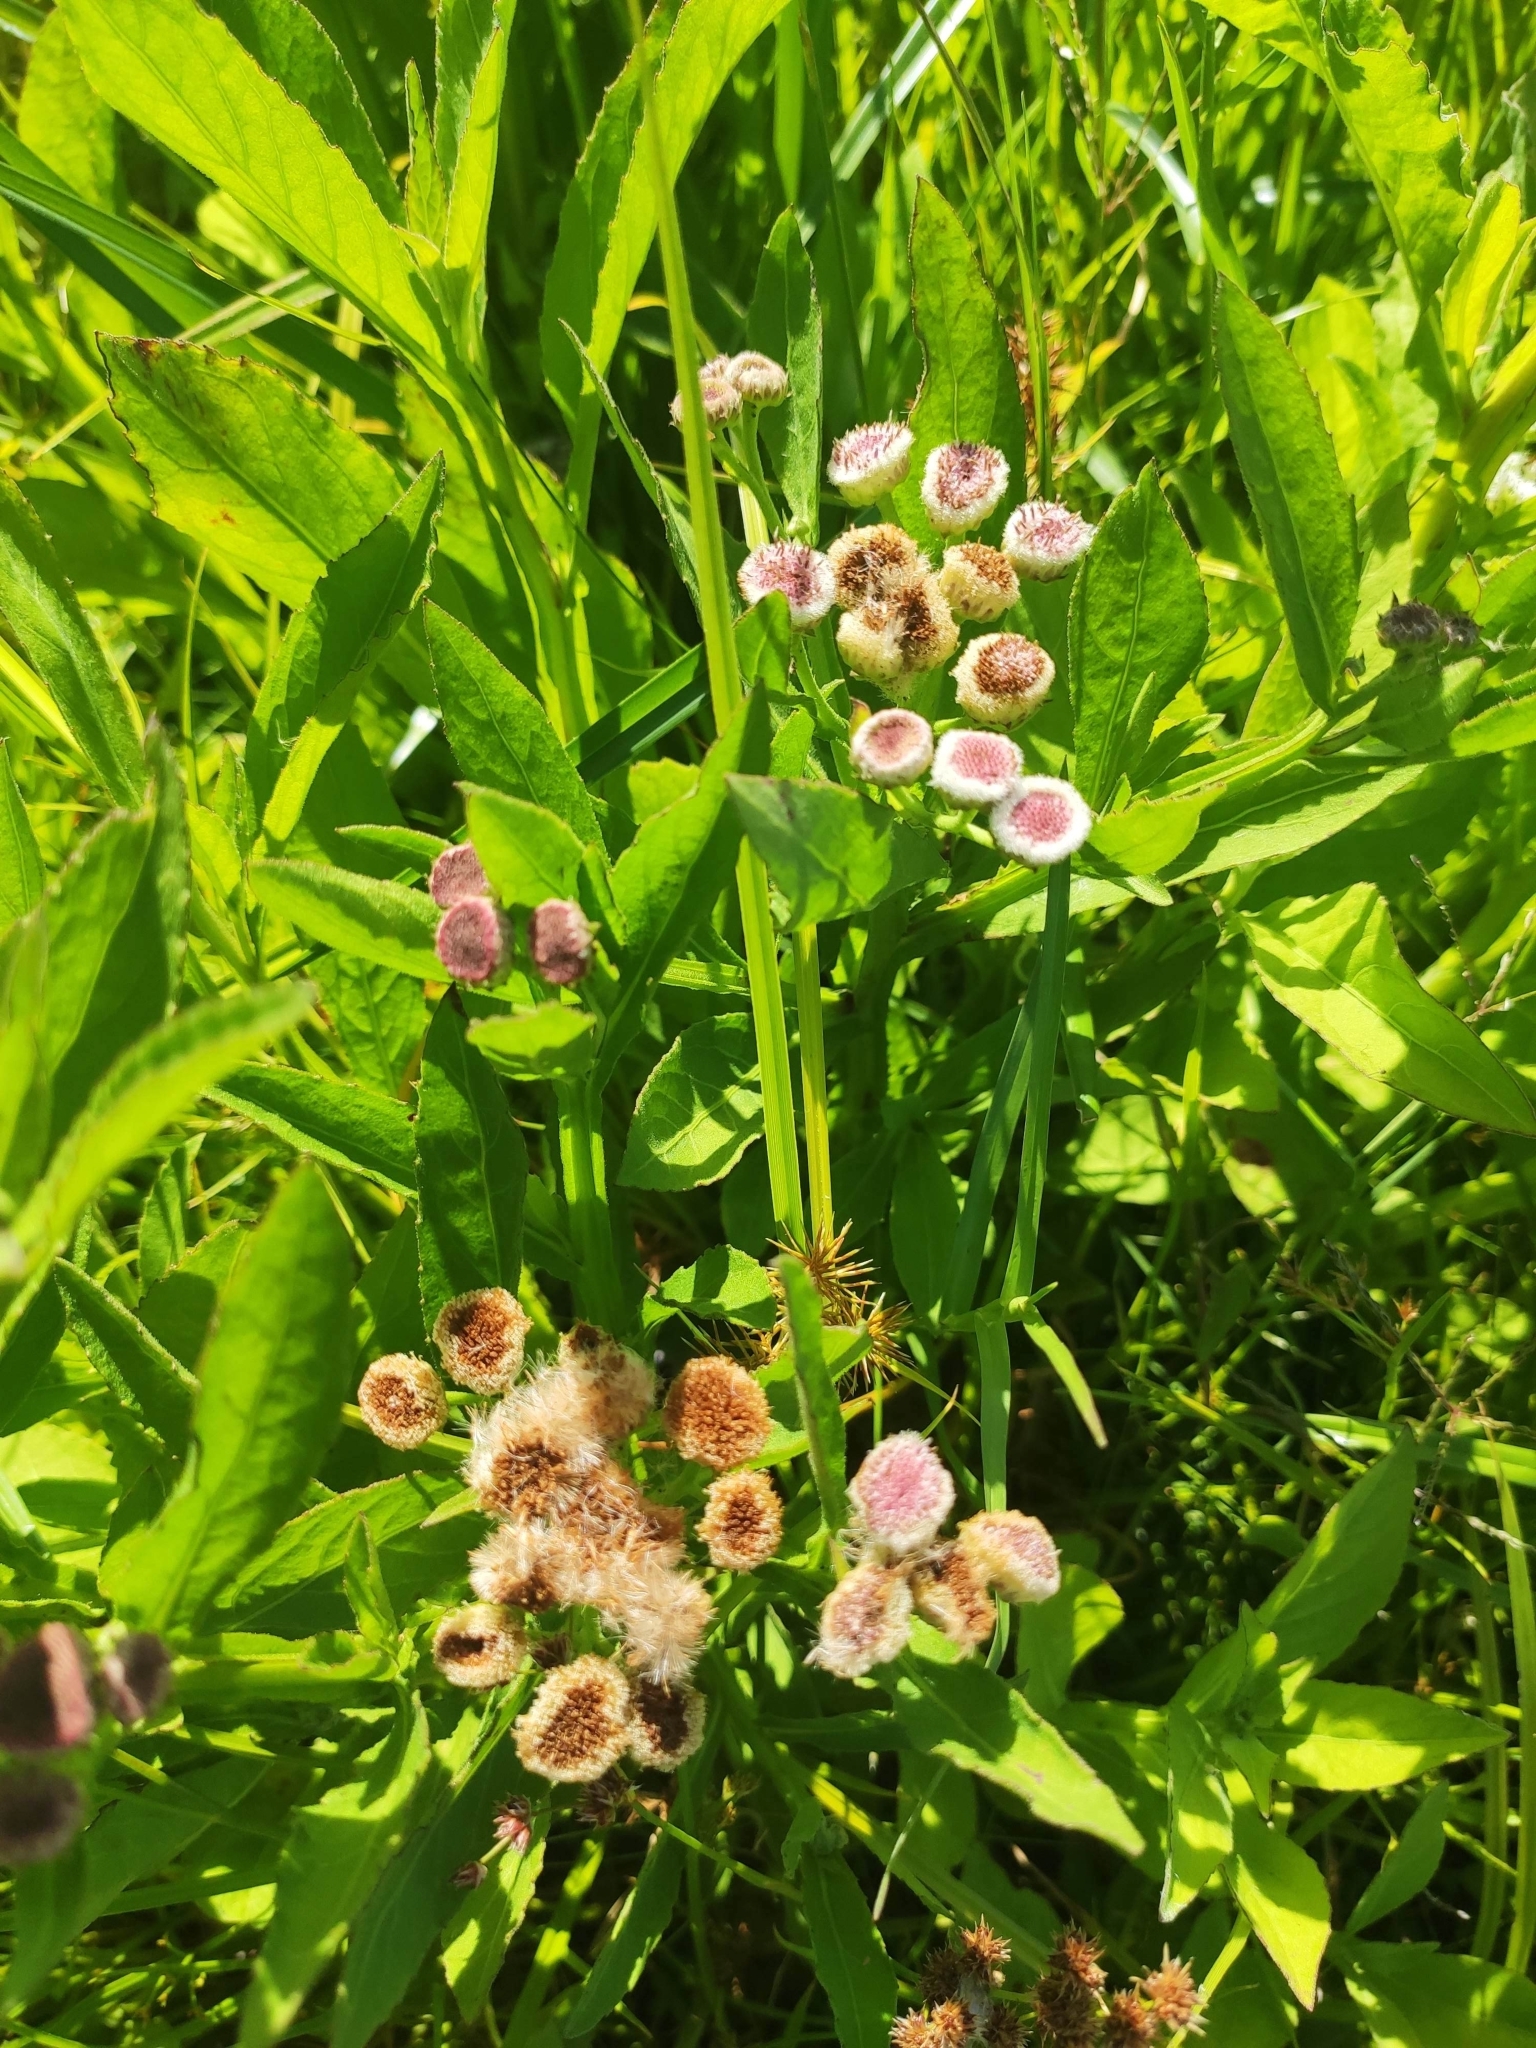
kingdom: Plantae
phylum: Tracheophyta
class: Magnoliopsida
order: Asterales
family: Asteraceae
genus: Pluchea
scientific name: Pluchea sagittalis
